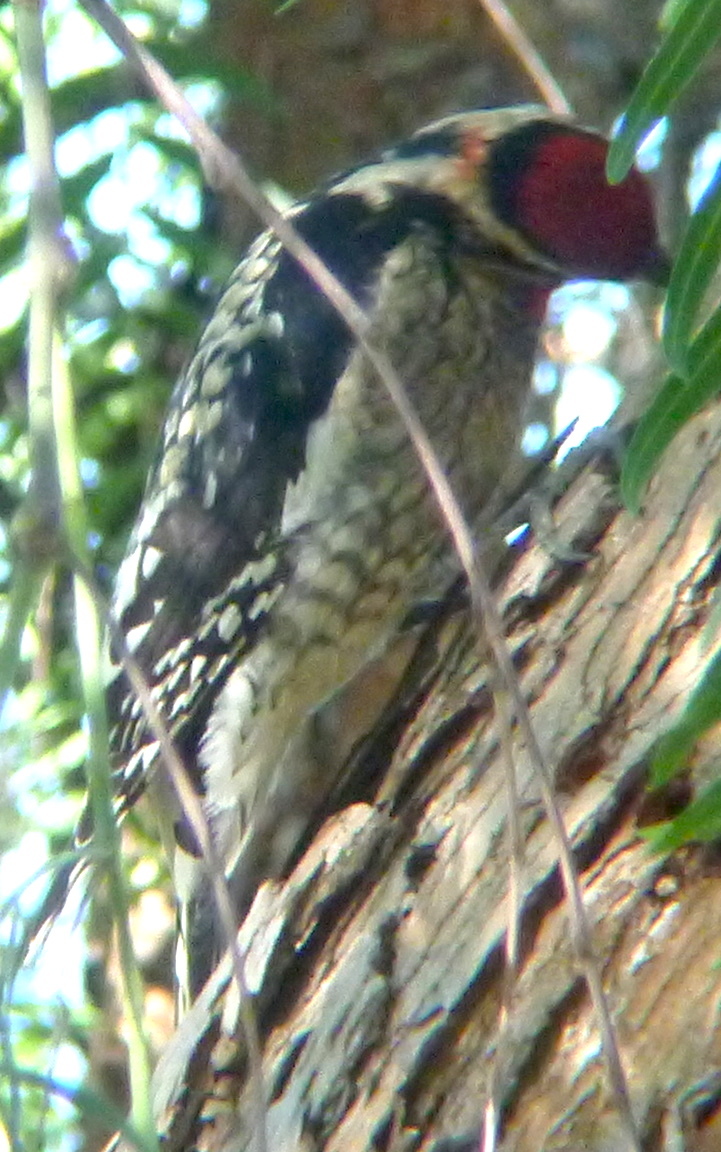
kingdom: Animalia
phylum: Chordata
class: Aves
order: Piciformes
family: Picidae
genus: Sphyrapicus
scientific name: Sphyrapicus nuchalis
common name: Red-naped sapsucker
